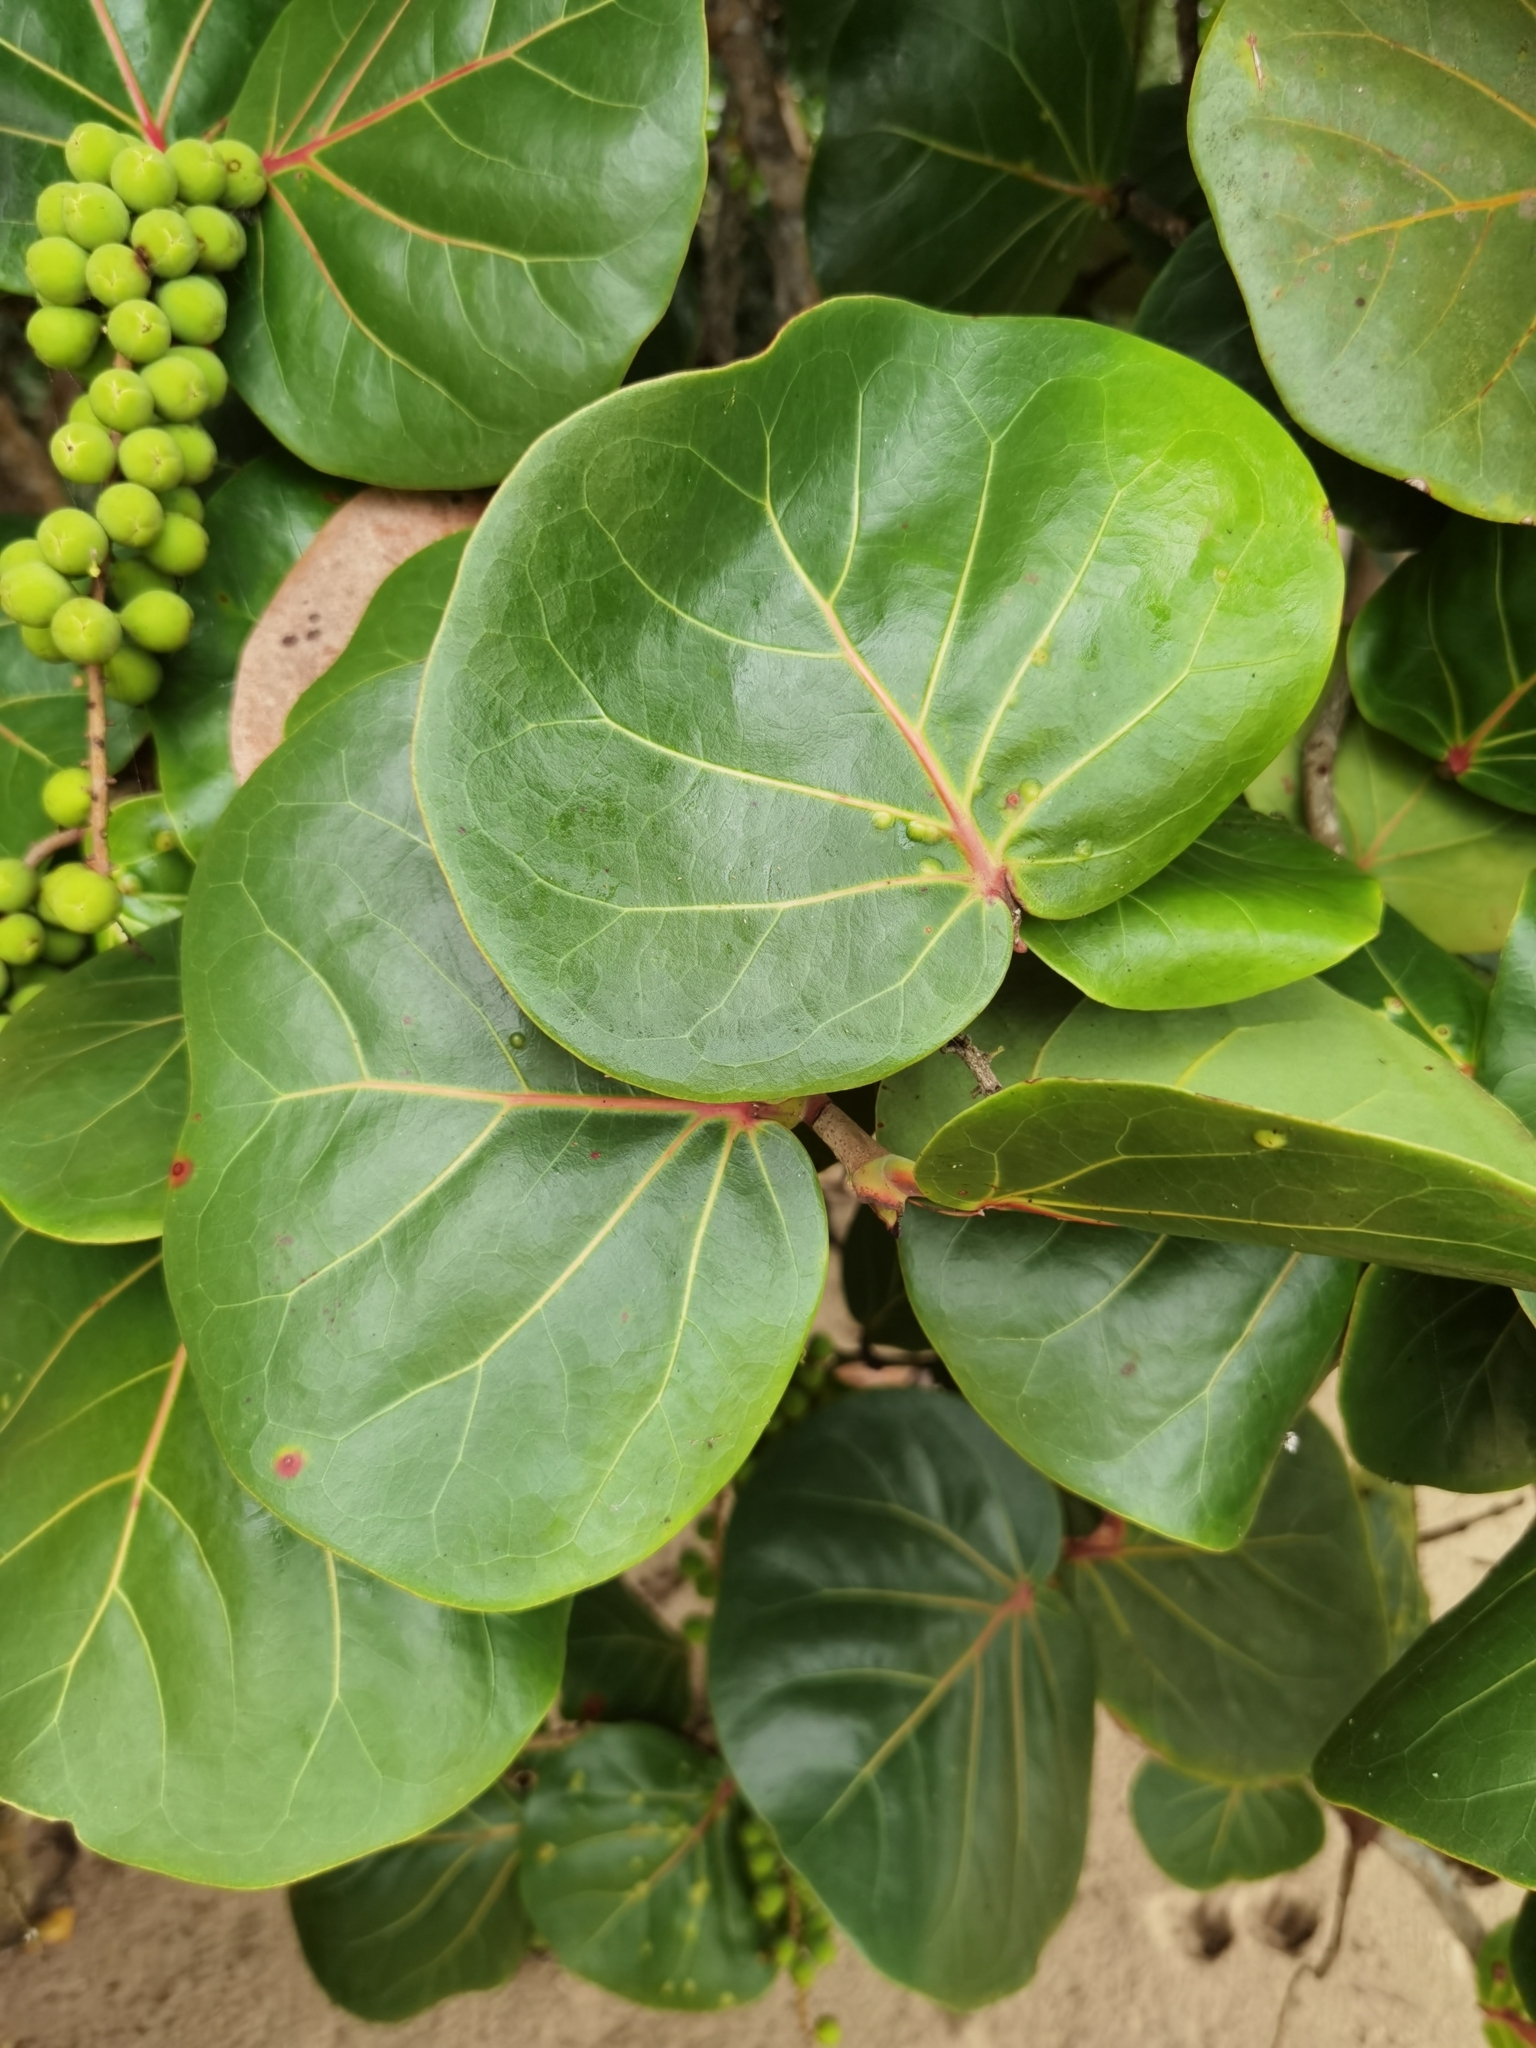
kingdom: Plantae
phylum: Tracheophyta
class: Magnoliopsida
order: Caryophyllales
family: Polygonaceae
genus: Coccoloba
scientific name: Coccoloba uvifera
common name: Seagrape
